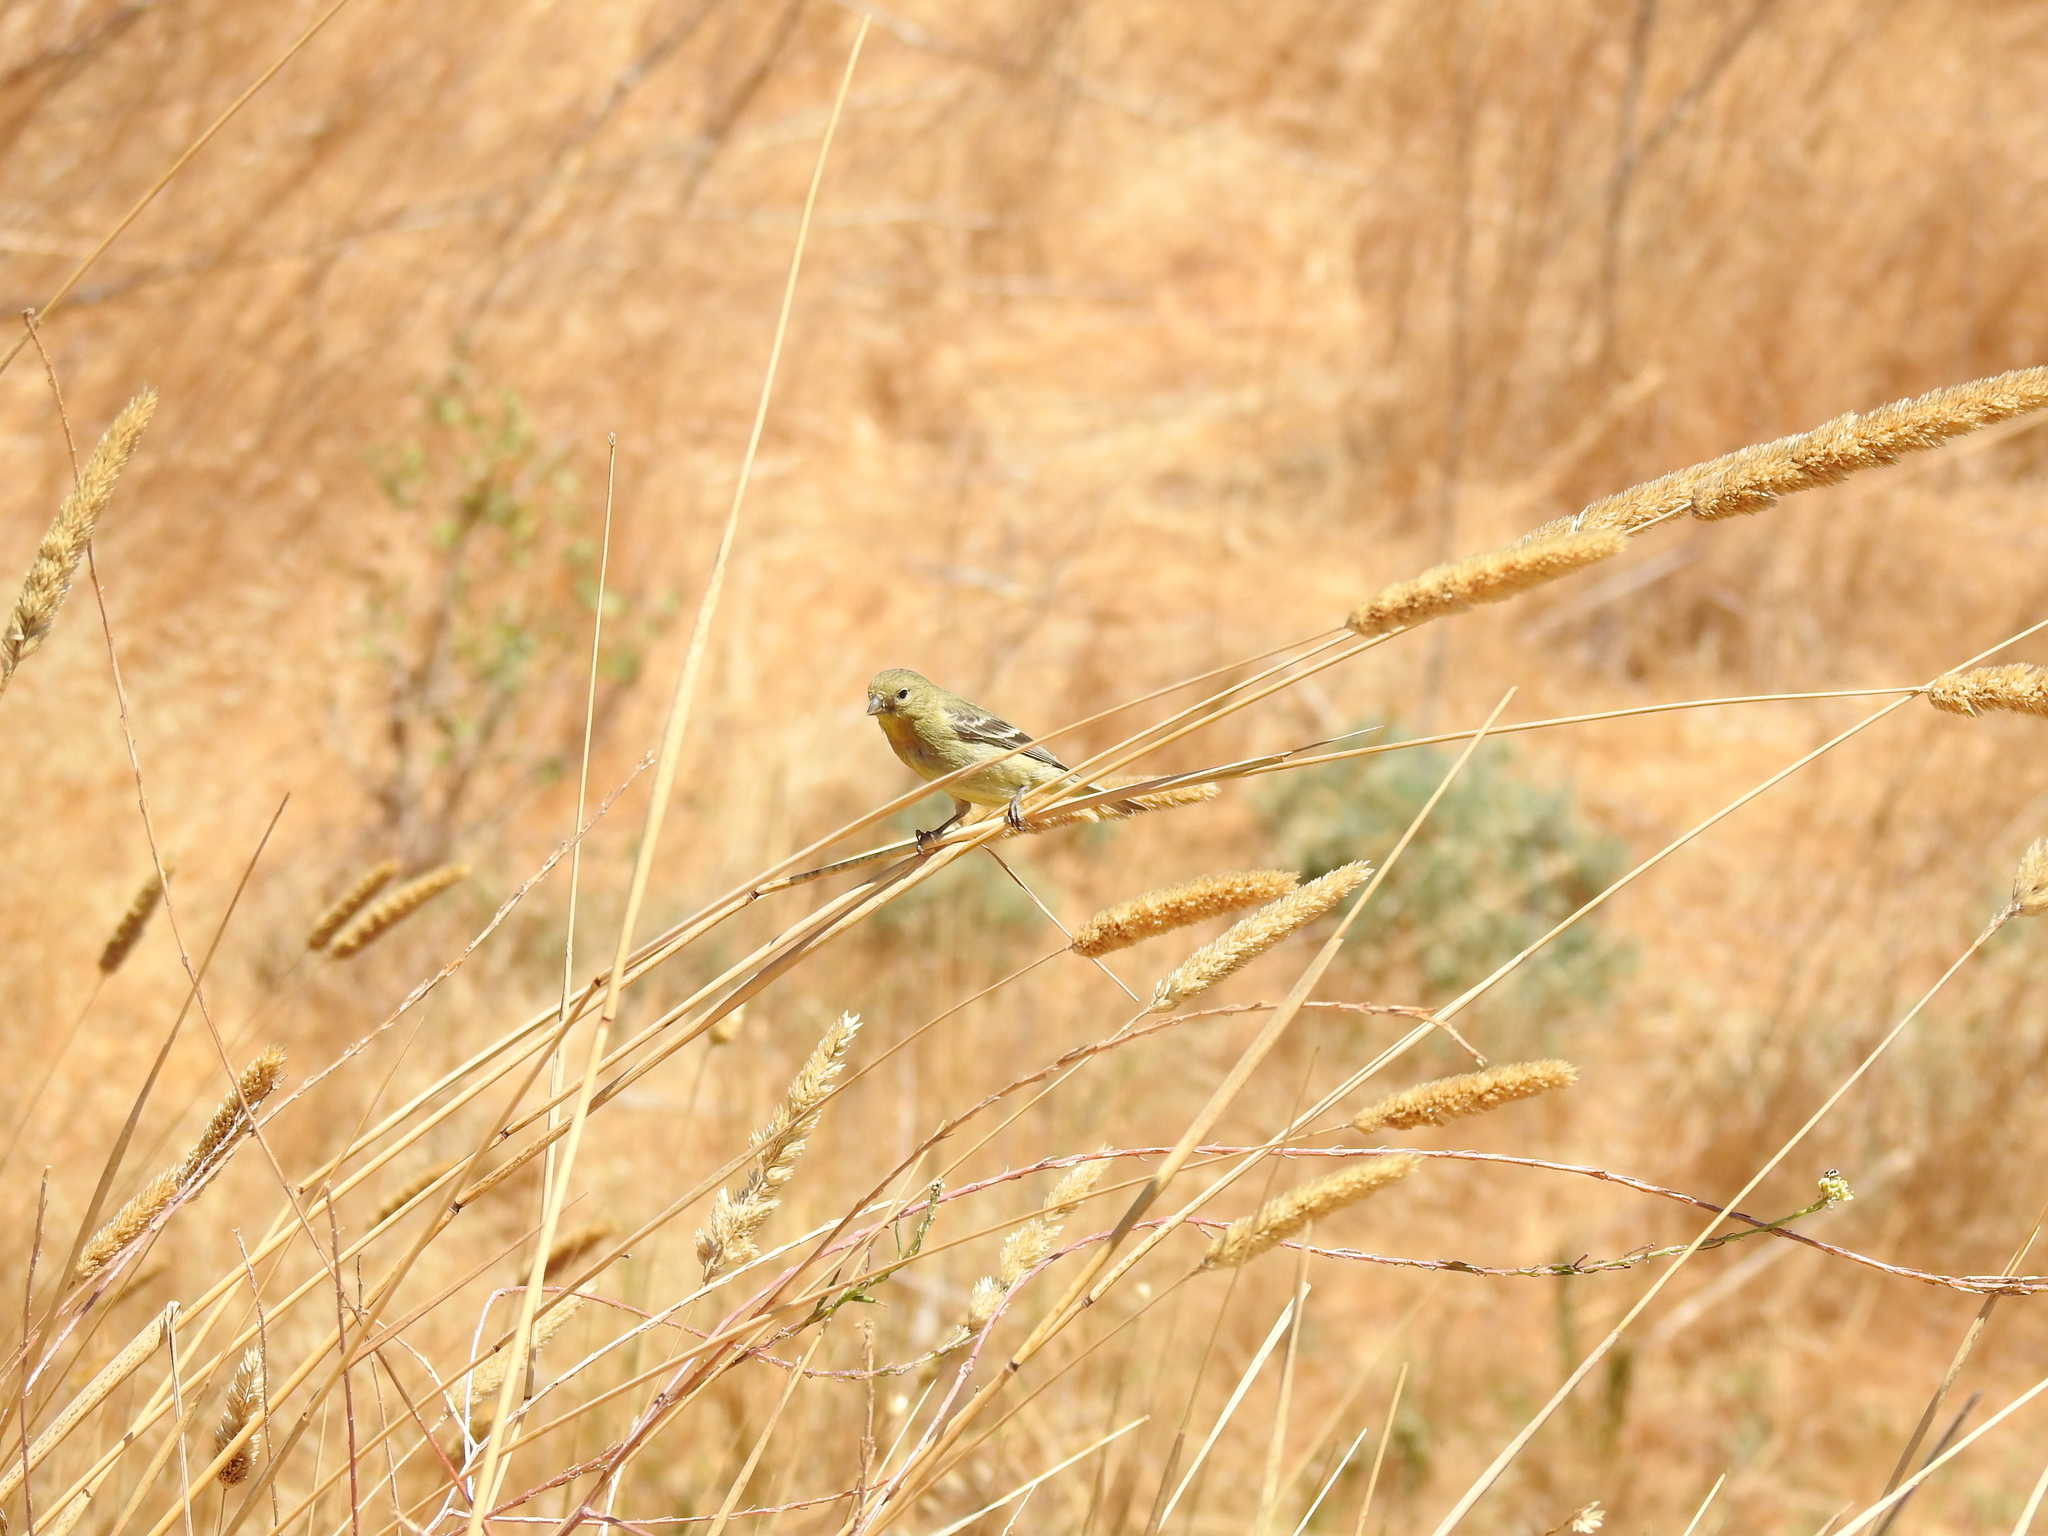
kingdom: Animalia
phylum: Chordata
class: Aves
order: Passeriformes
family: Fringillidae
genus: Spinus
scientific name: Spinus psaltria
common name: Lesser goldfinch
